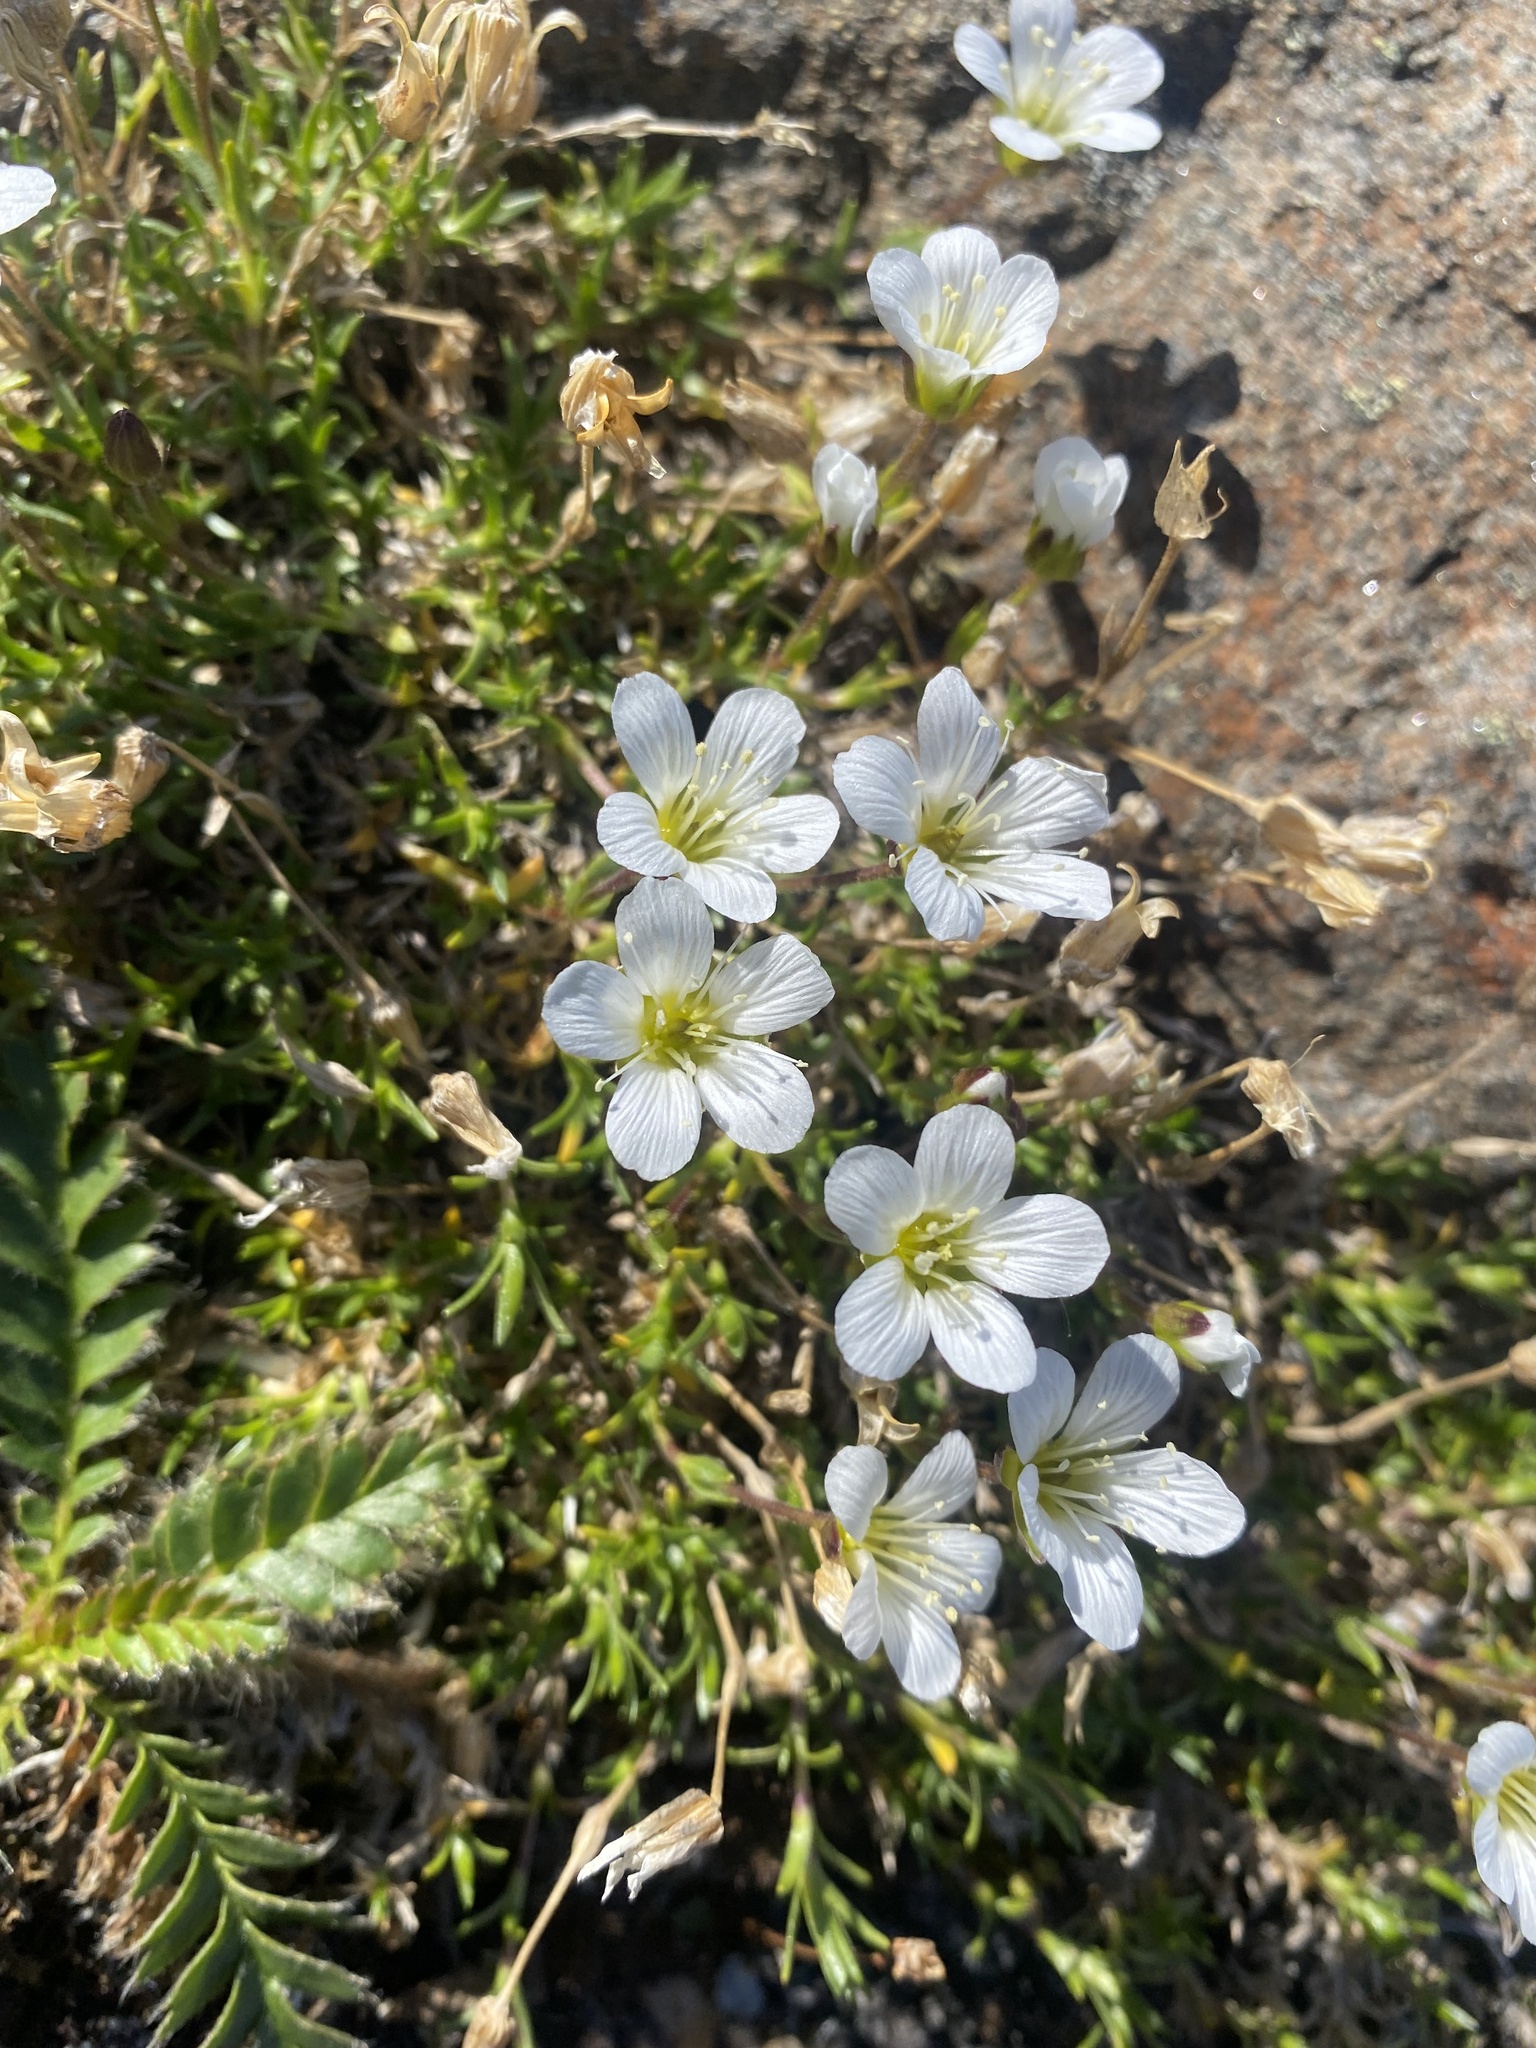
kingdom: Plantae
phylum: Tracheophyta
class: Magnoliopsida
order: Caryophyllales
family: Caryophyllaceae
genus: Pseudocherleria
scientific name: Pseudocherleria macrocarpa
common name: Large-fruit sandwort
